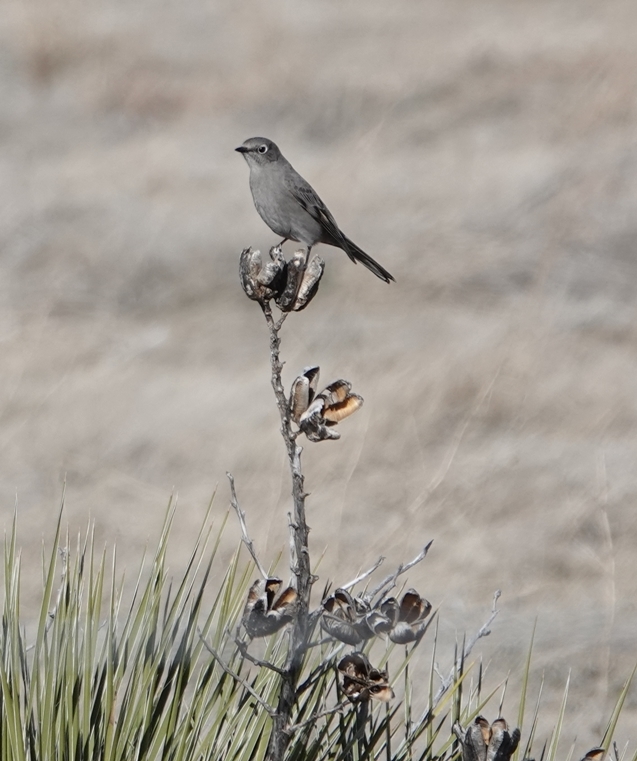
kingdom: Animalia
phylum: Chordata
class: Aves
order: Passeriformes
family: Turdidae
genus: Myadestes
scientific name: Myadestes townsendi
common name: Townsend's solitaire
